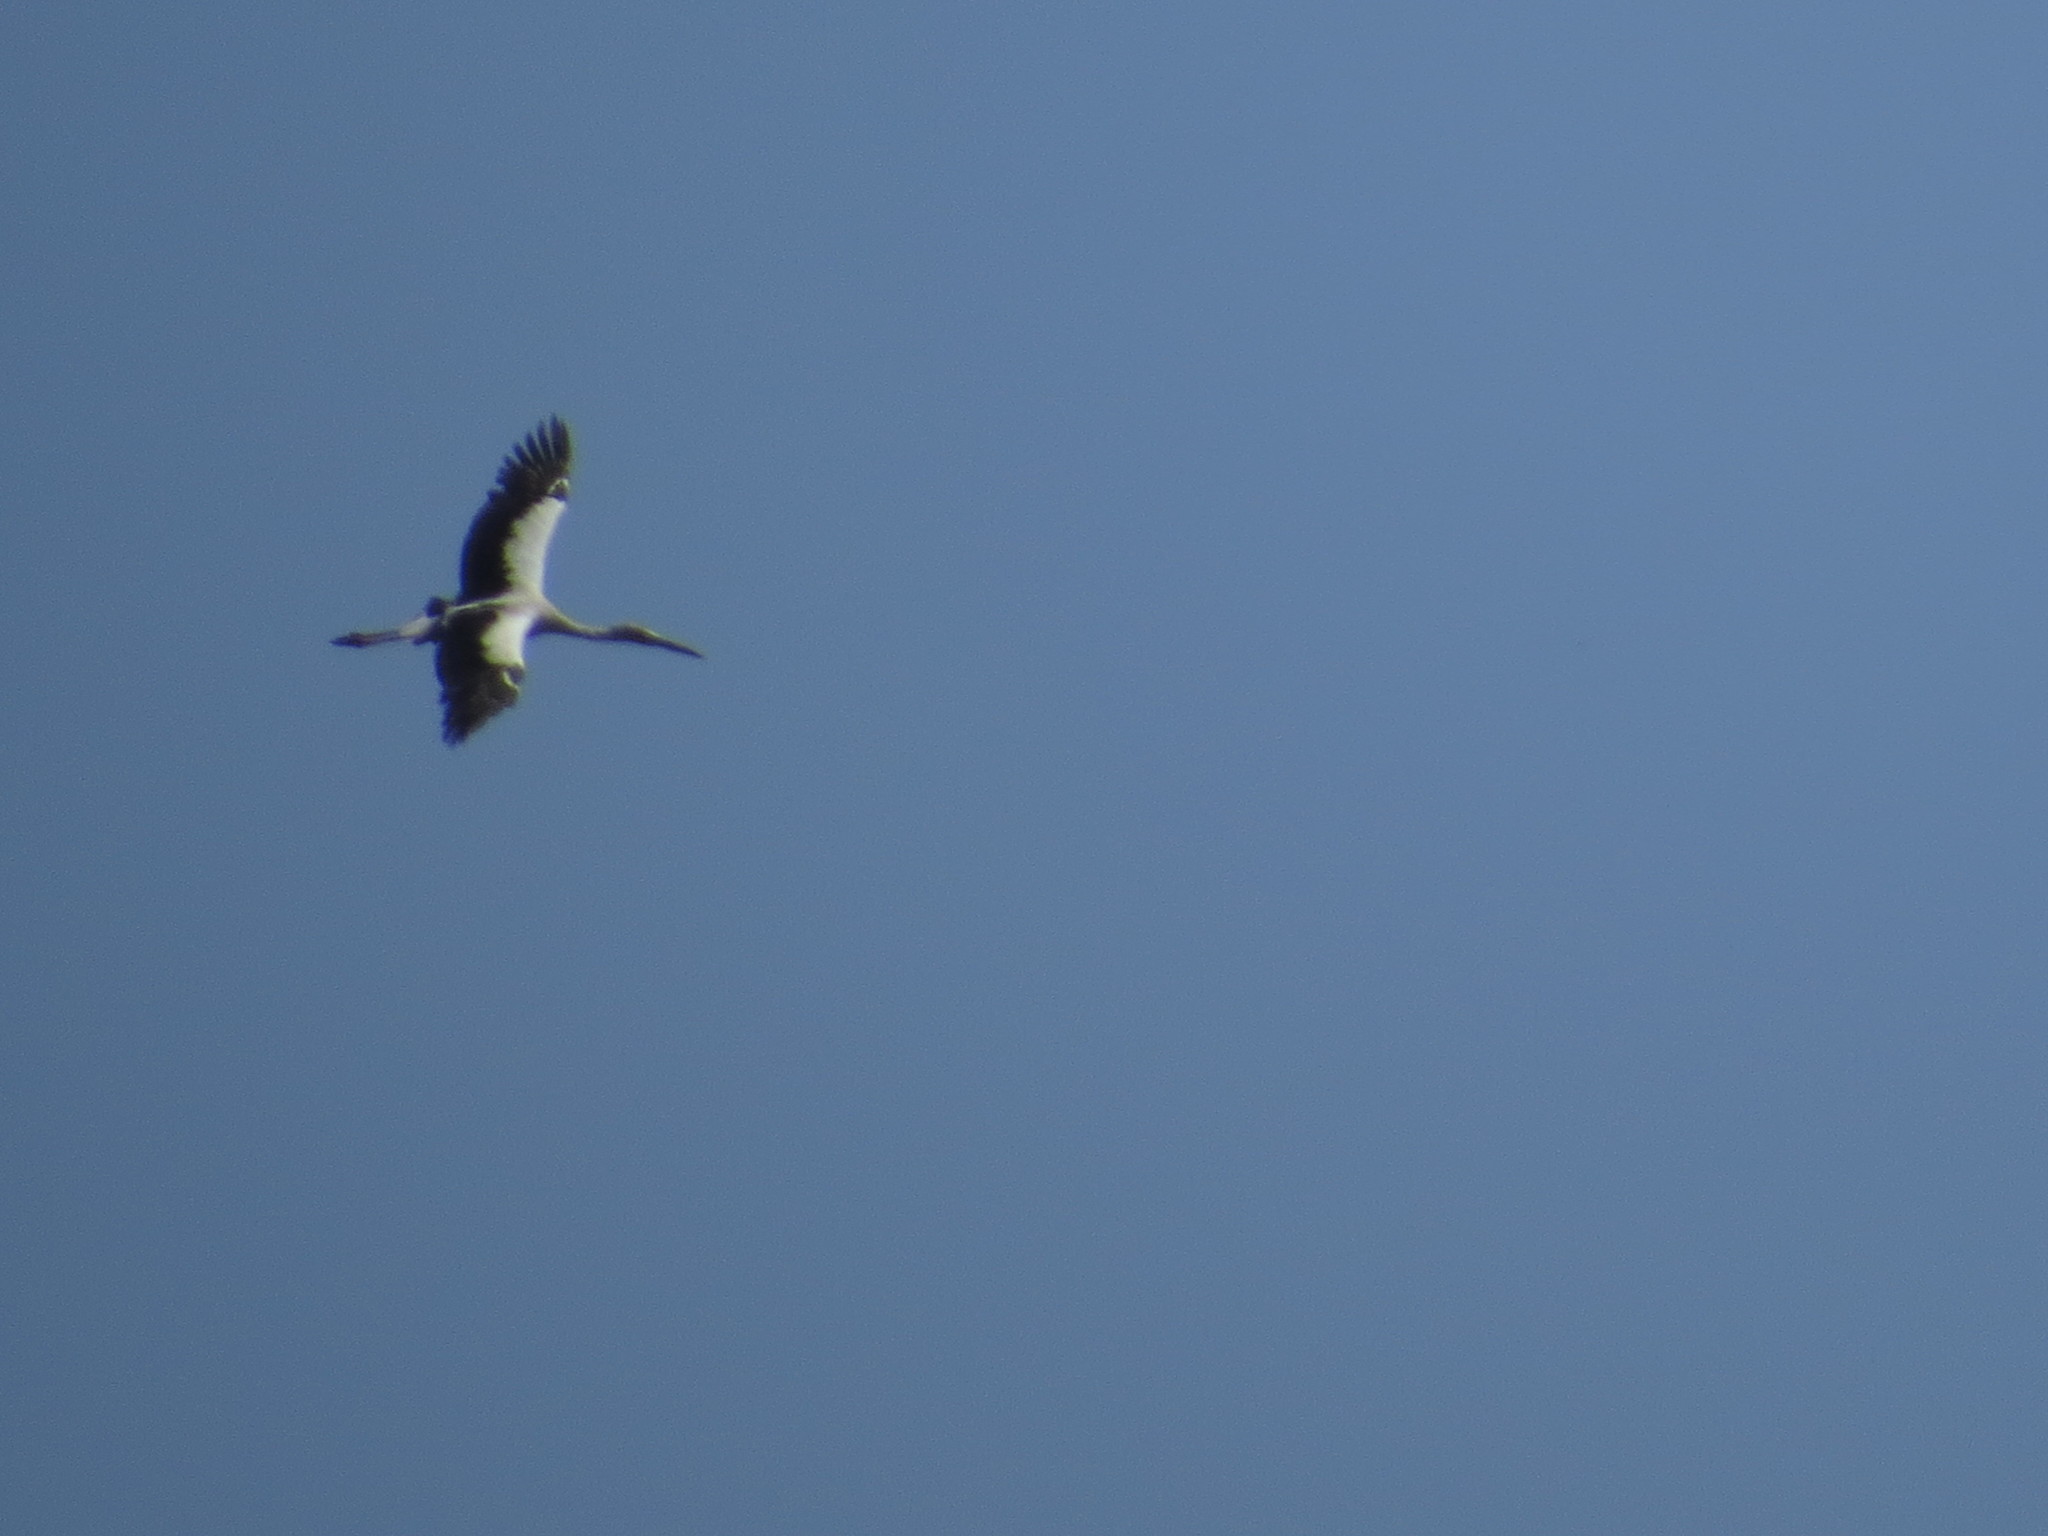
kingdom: Animalia
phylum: Chordata
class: Aves
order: Ciconiiformes
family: Ciconiidae
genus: Ciconia
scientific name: Ciconia maguari
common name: Maguari stork
